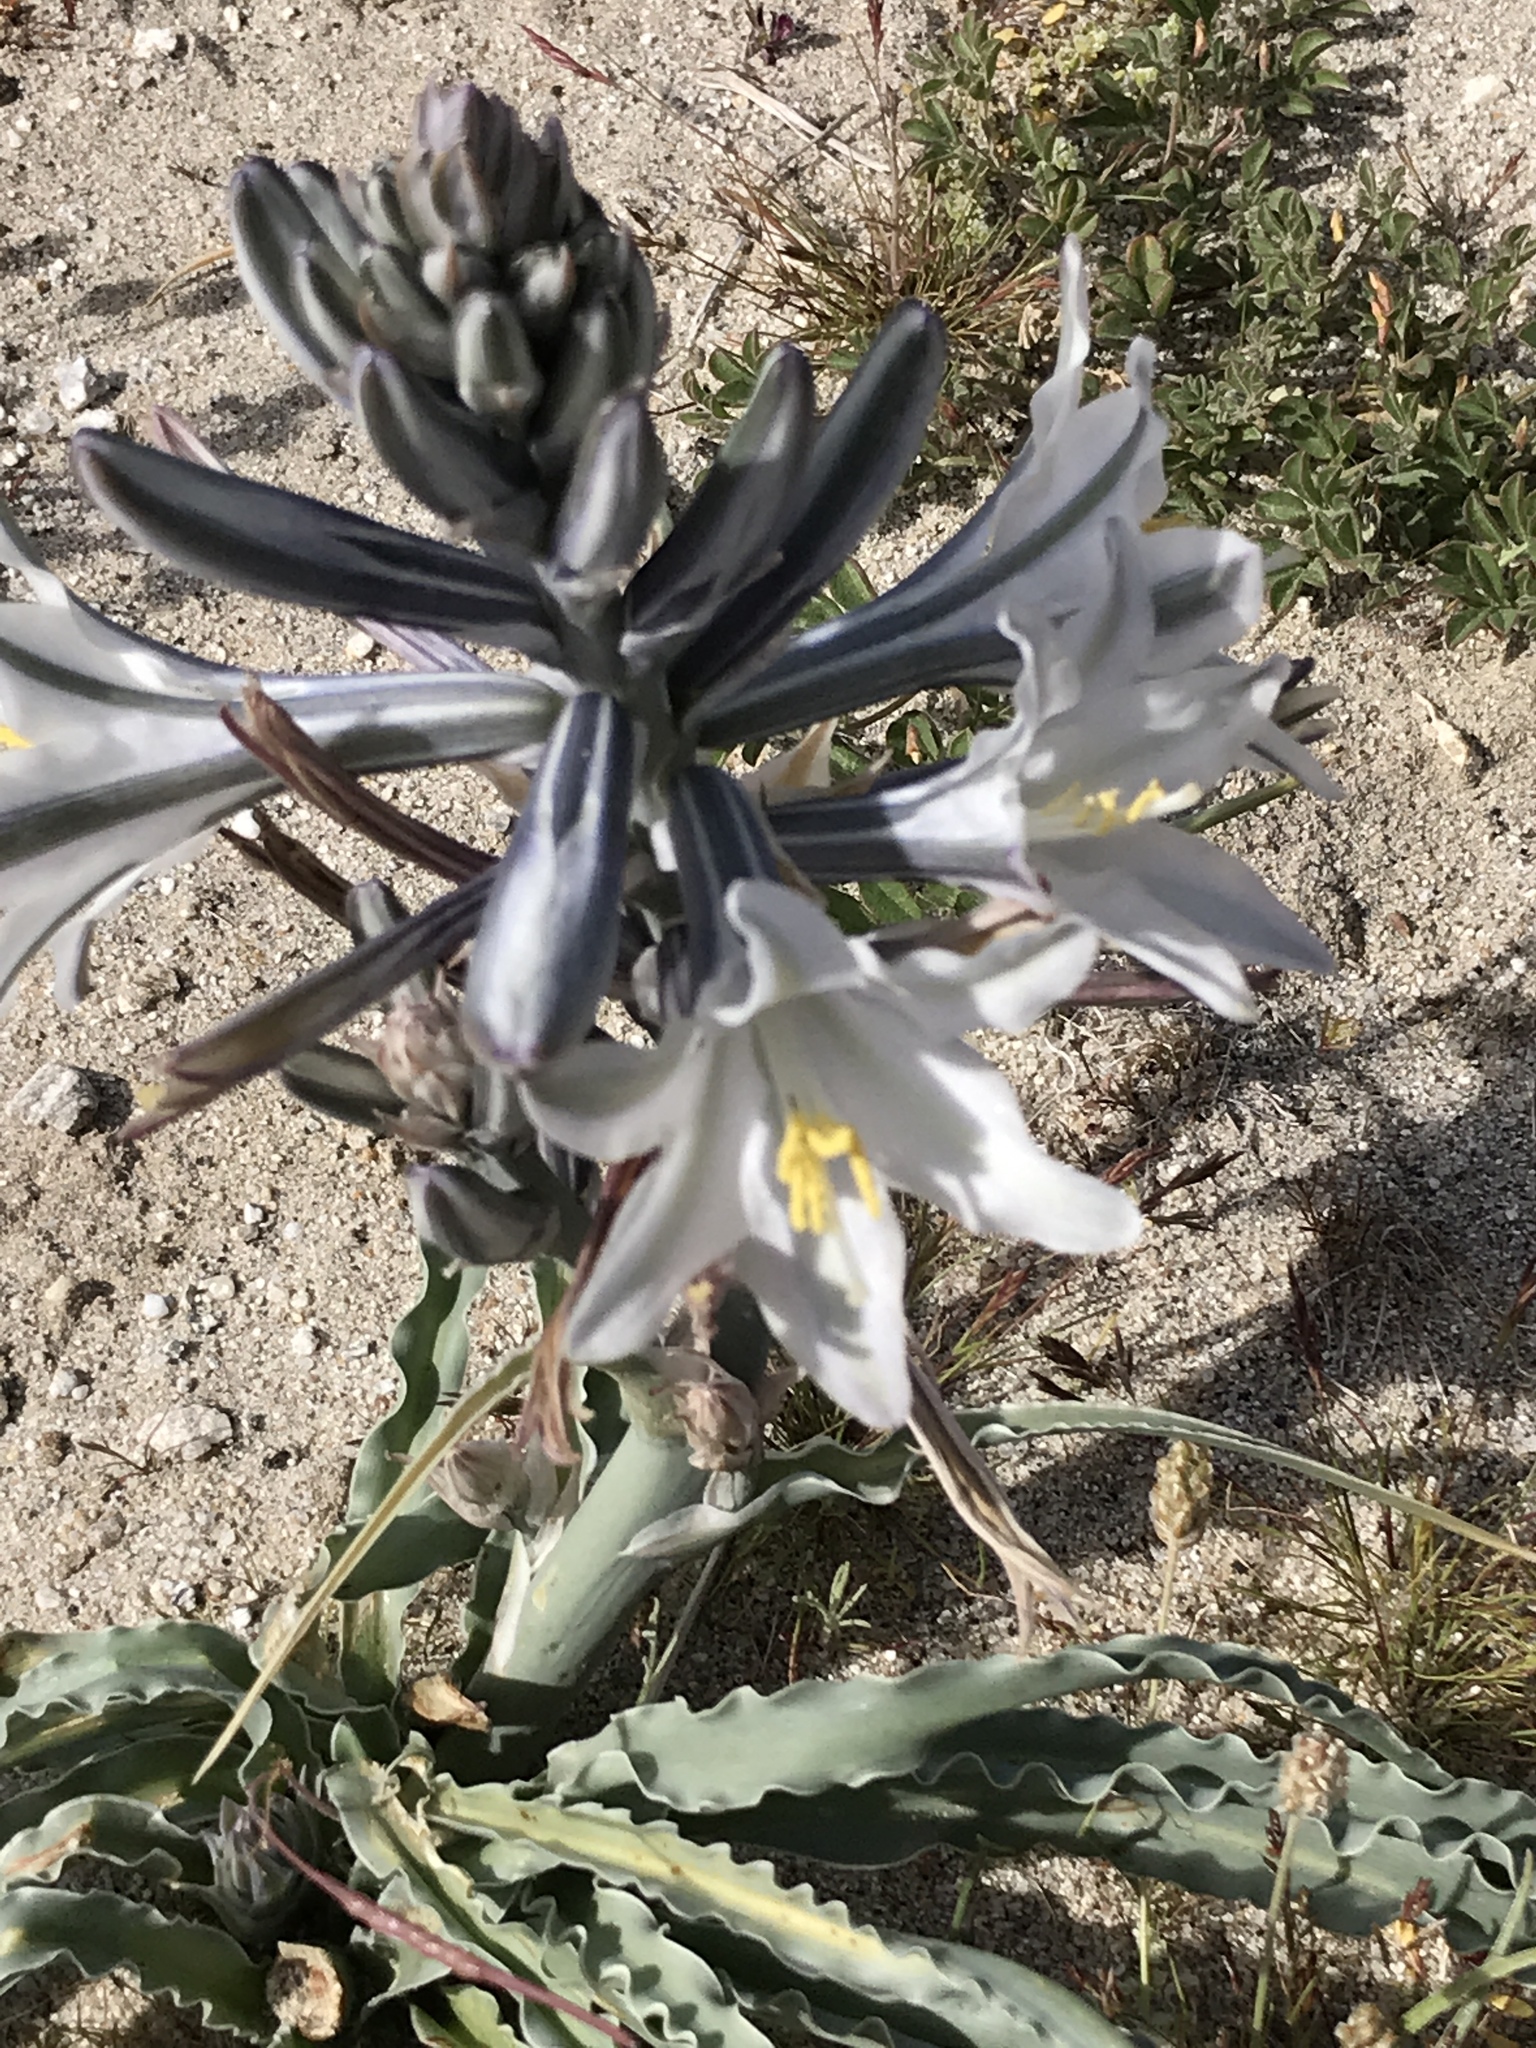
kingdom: Plantae
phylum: Tracheophyta
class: Liliopsida
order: Asparagales
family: Asparagaceae
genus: Hesperocallis
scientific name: Hesperocallis undulata
